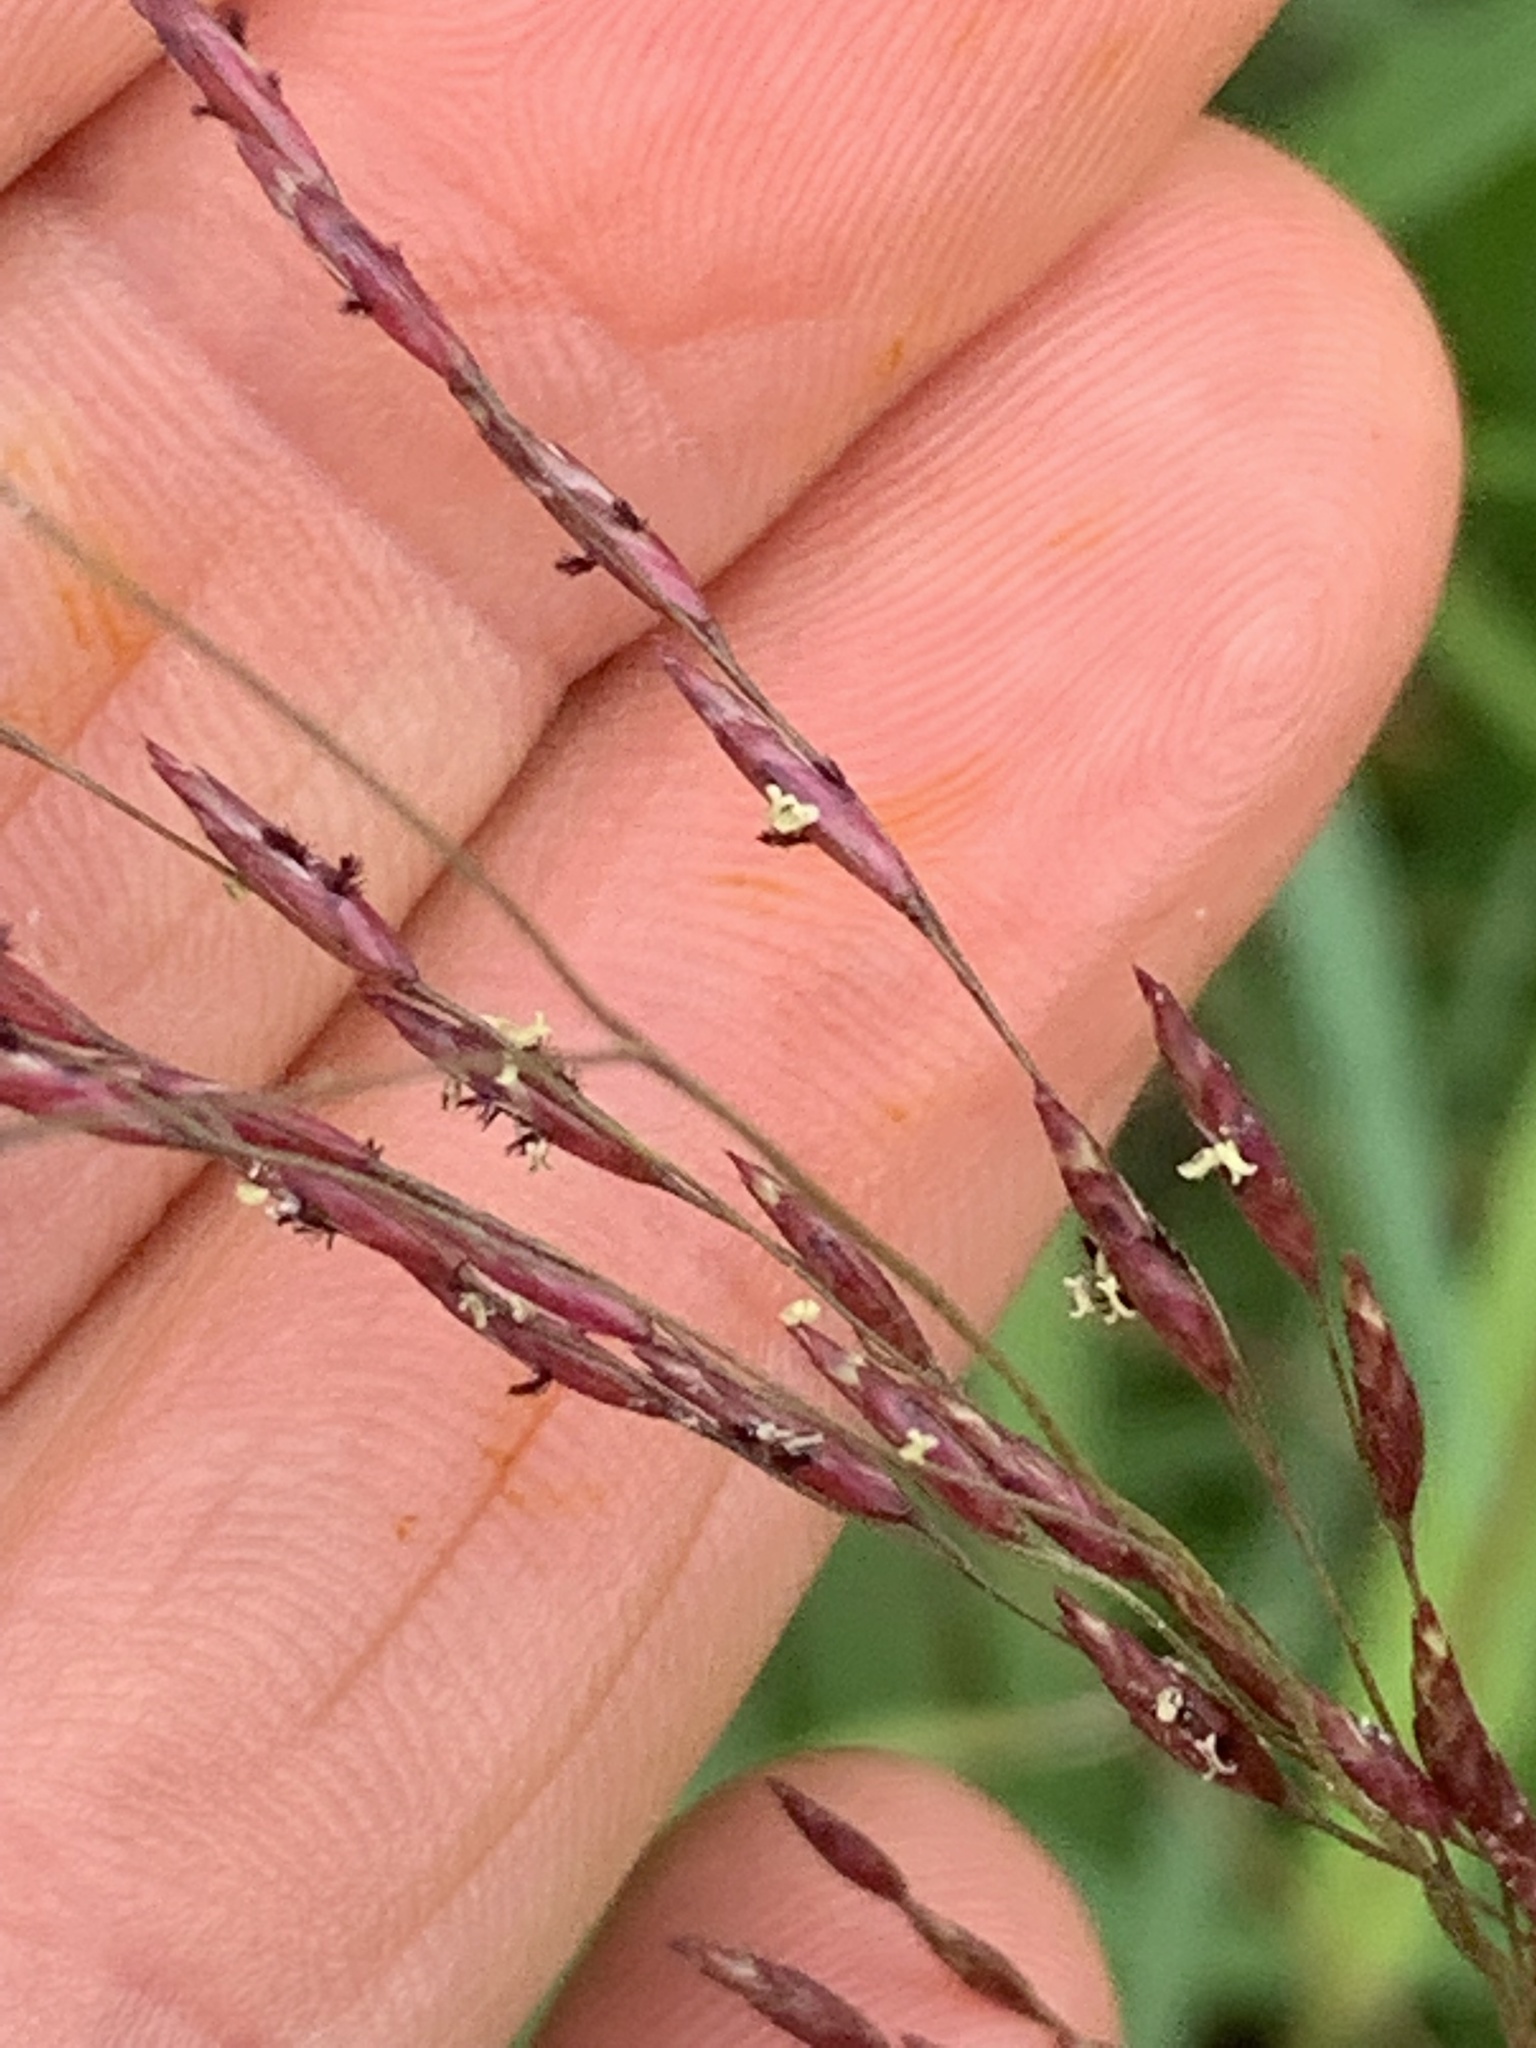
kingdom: Plantae
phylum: Tracheophyta
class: Liliopsida
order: Poales
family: Poaceae
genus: Tridens
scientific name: Tridens flavus
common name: Purpletop
